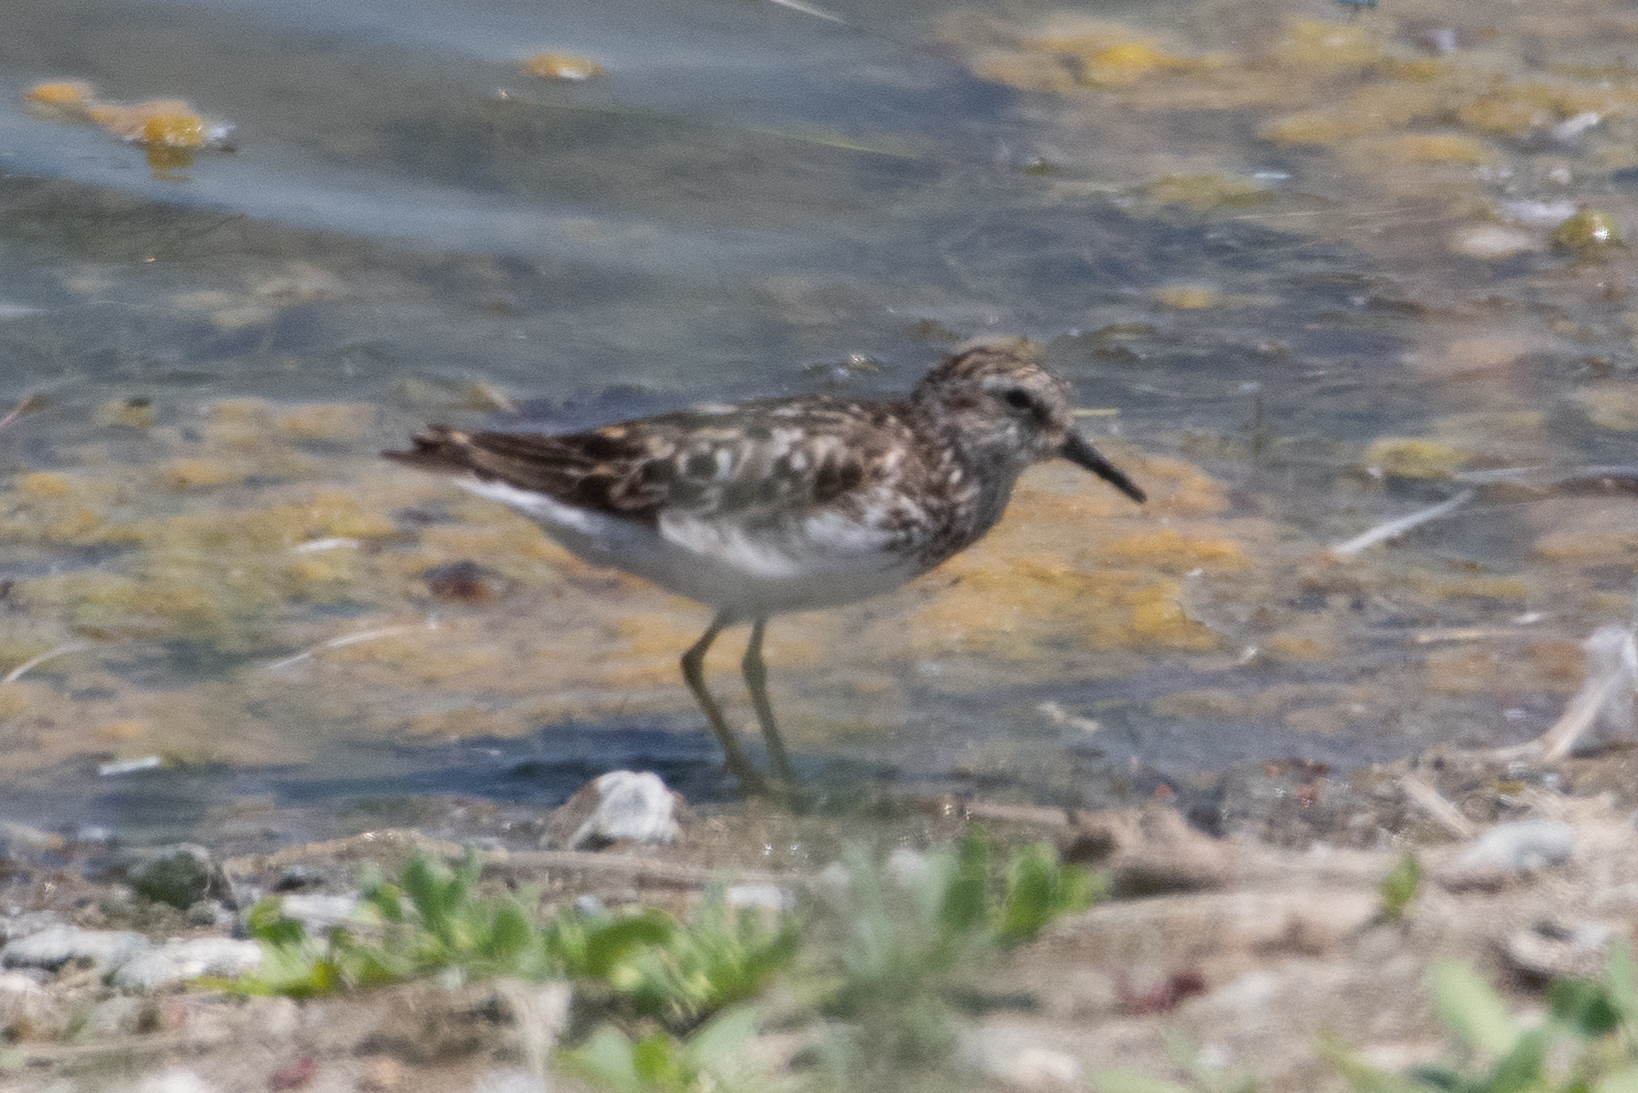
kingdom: Animalia
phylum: Chordata
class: Aves
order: Charadriiformes
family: Scolopacidae
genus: Calidris
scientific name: Calidris minutilla
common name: Least sandpiper
